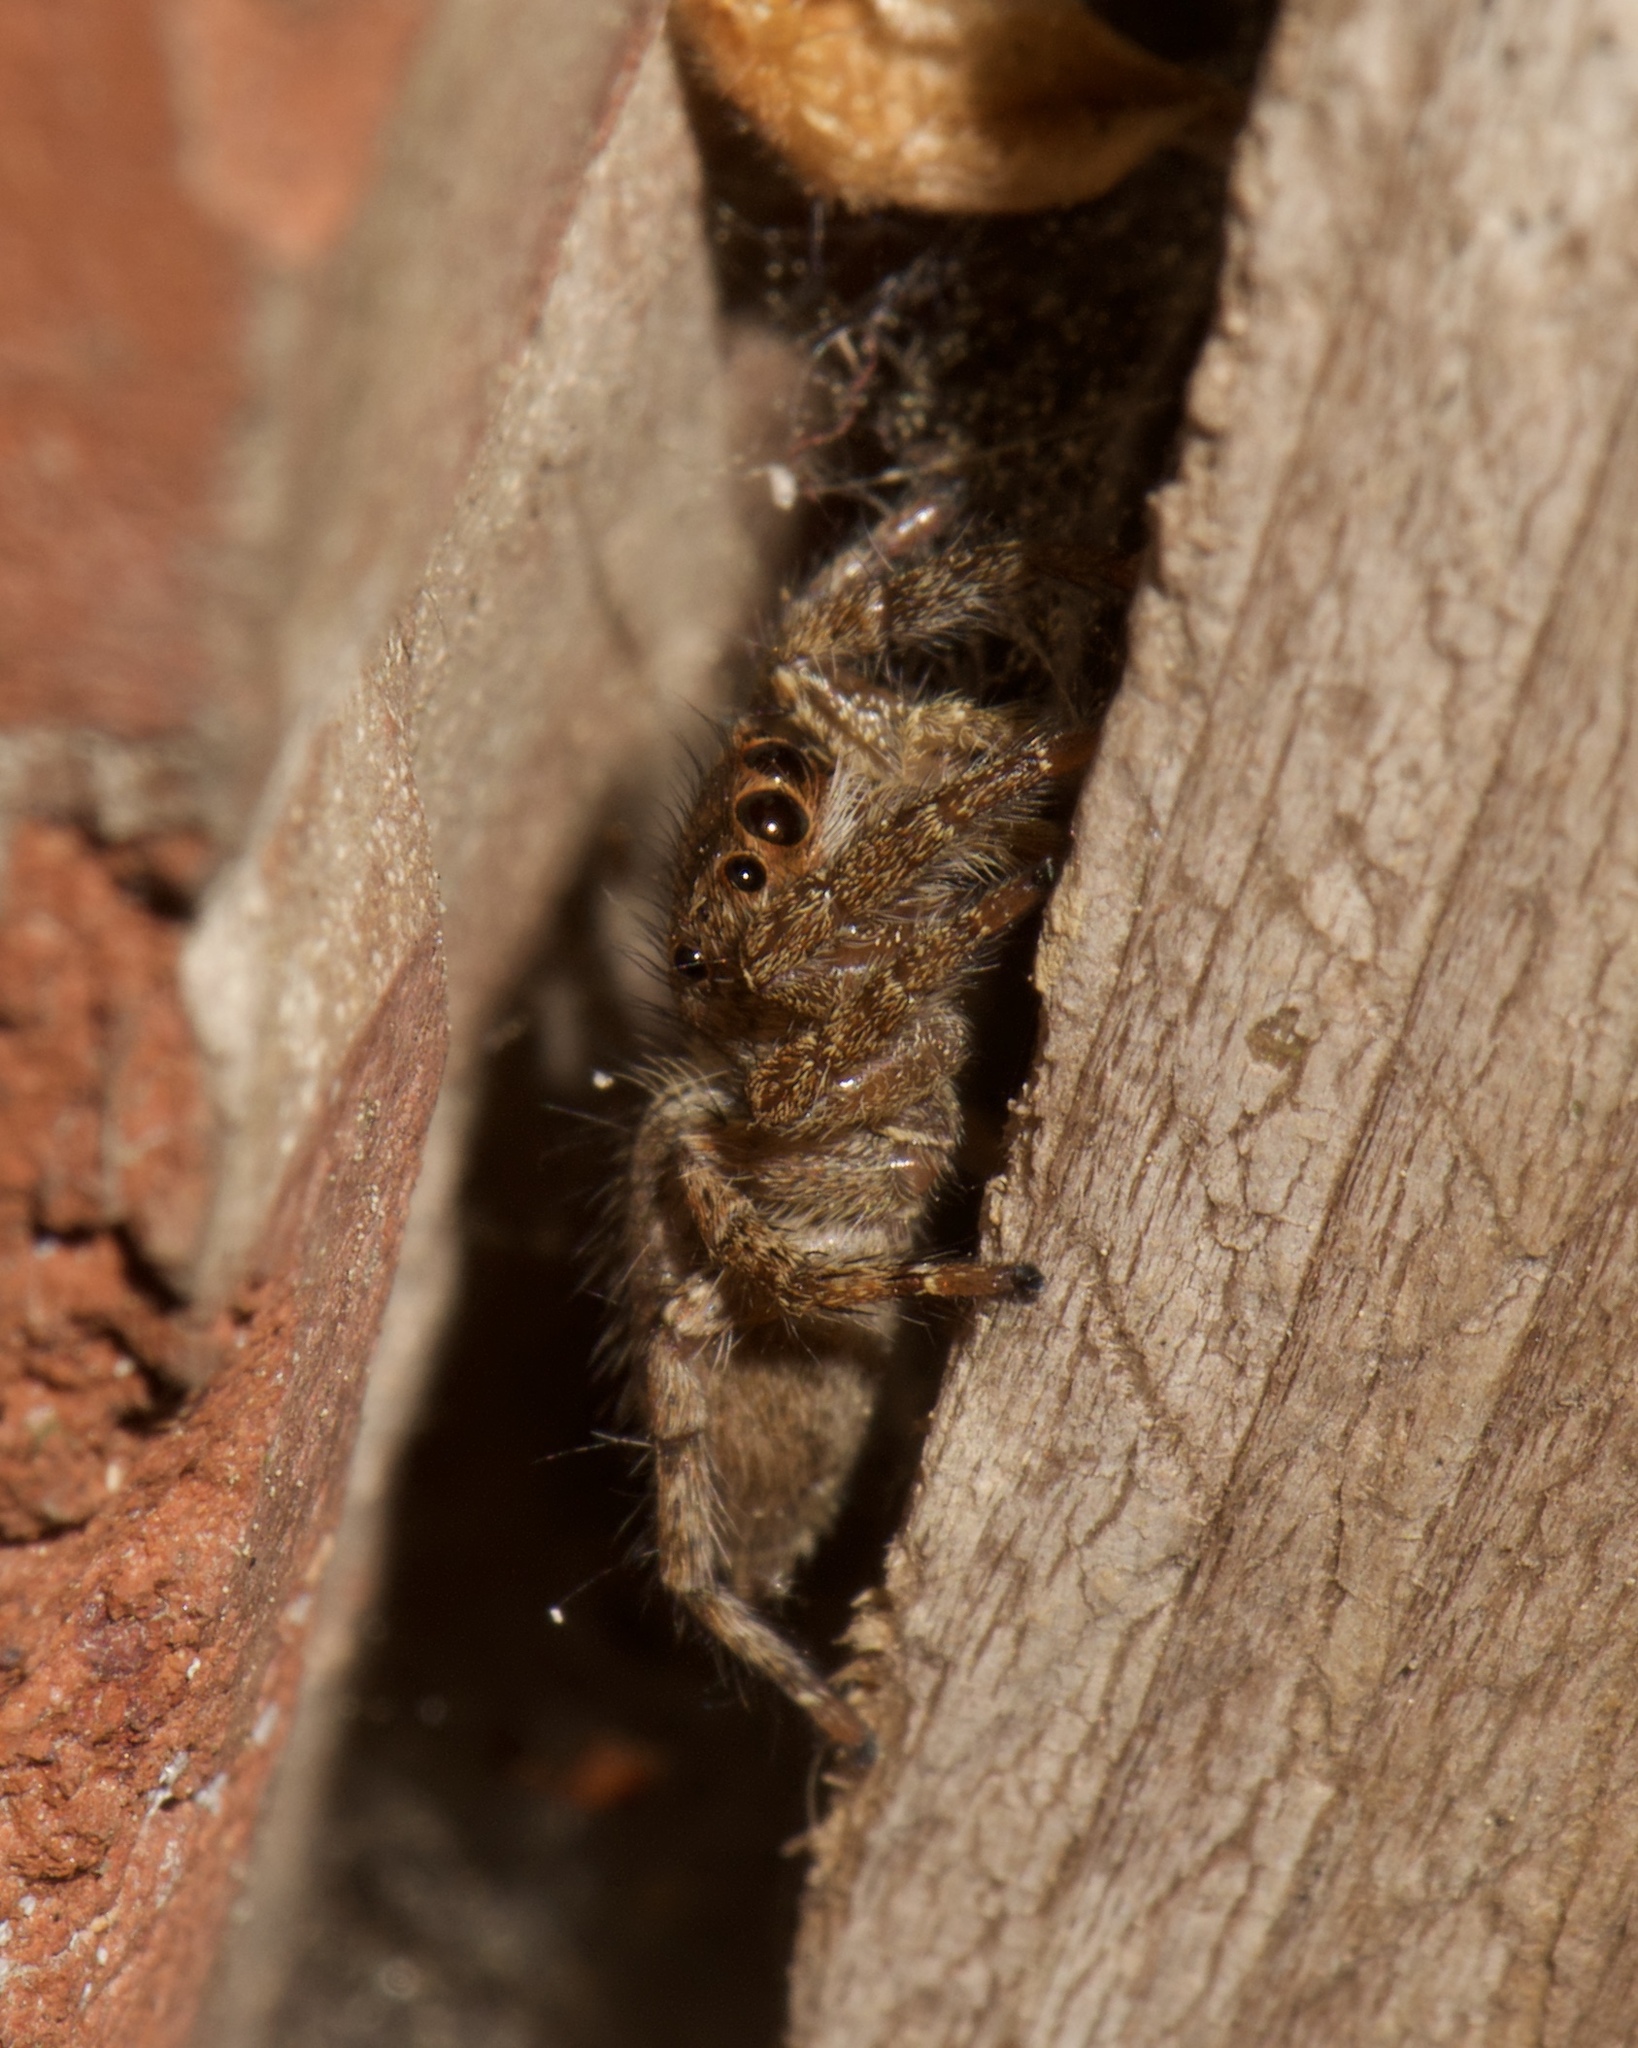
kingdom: Animalia
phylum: Arthropoda
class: Arachnida
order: Araneae
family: Salticidae
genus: Plexippus
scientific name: Plexippus paykulli
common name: Pantropical jumper
